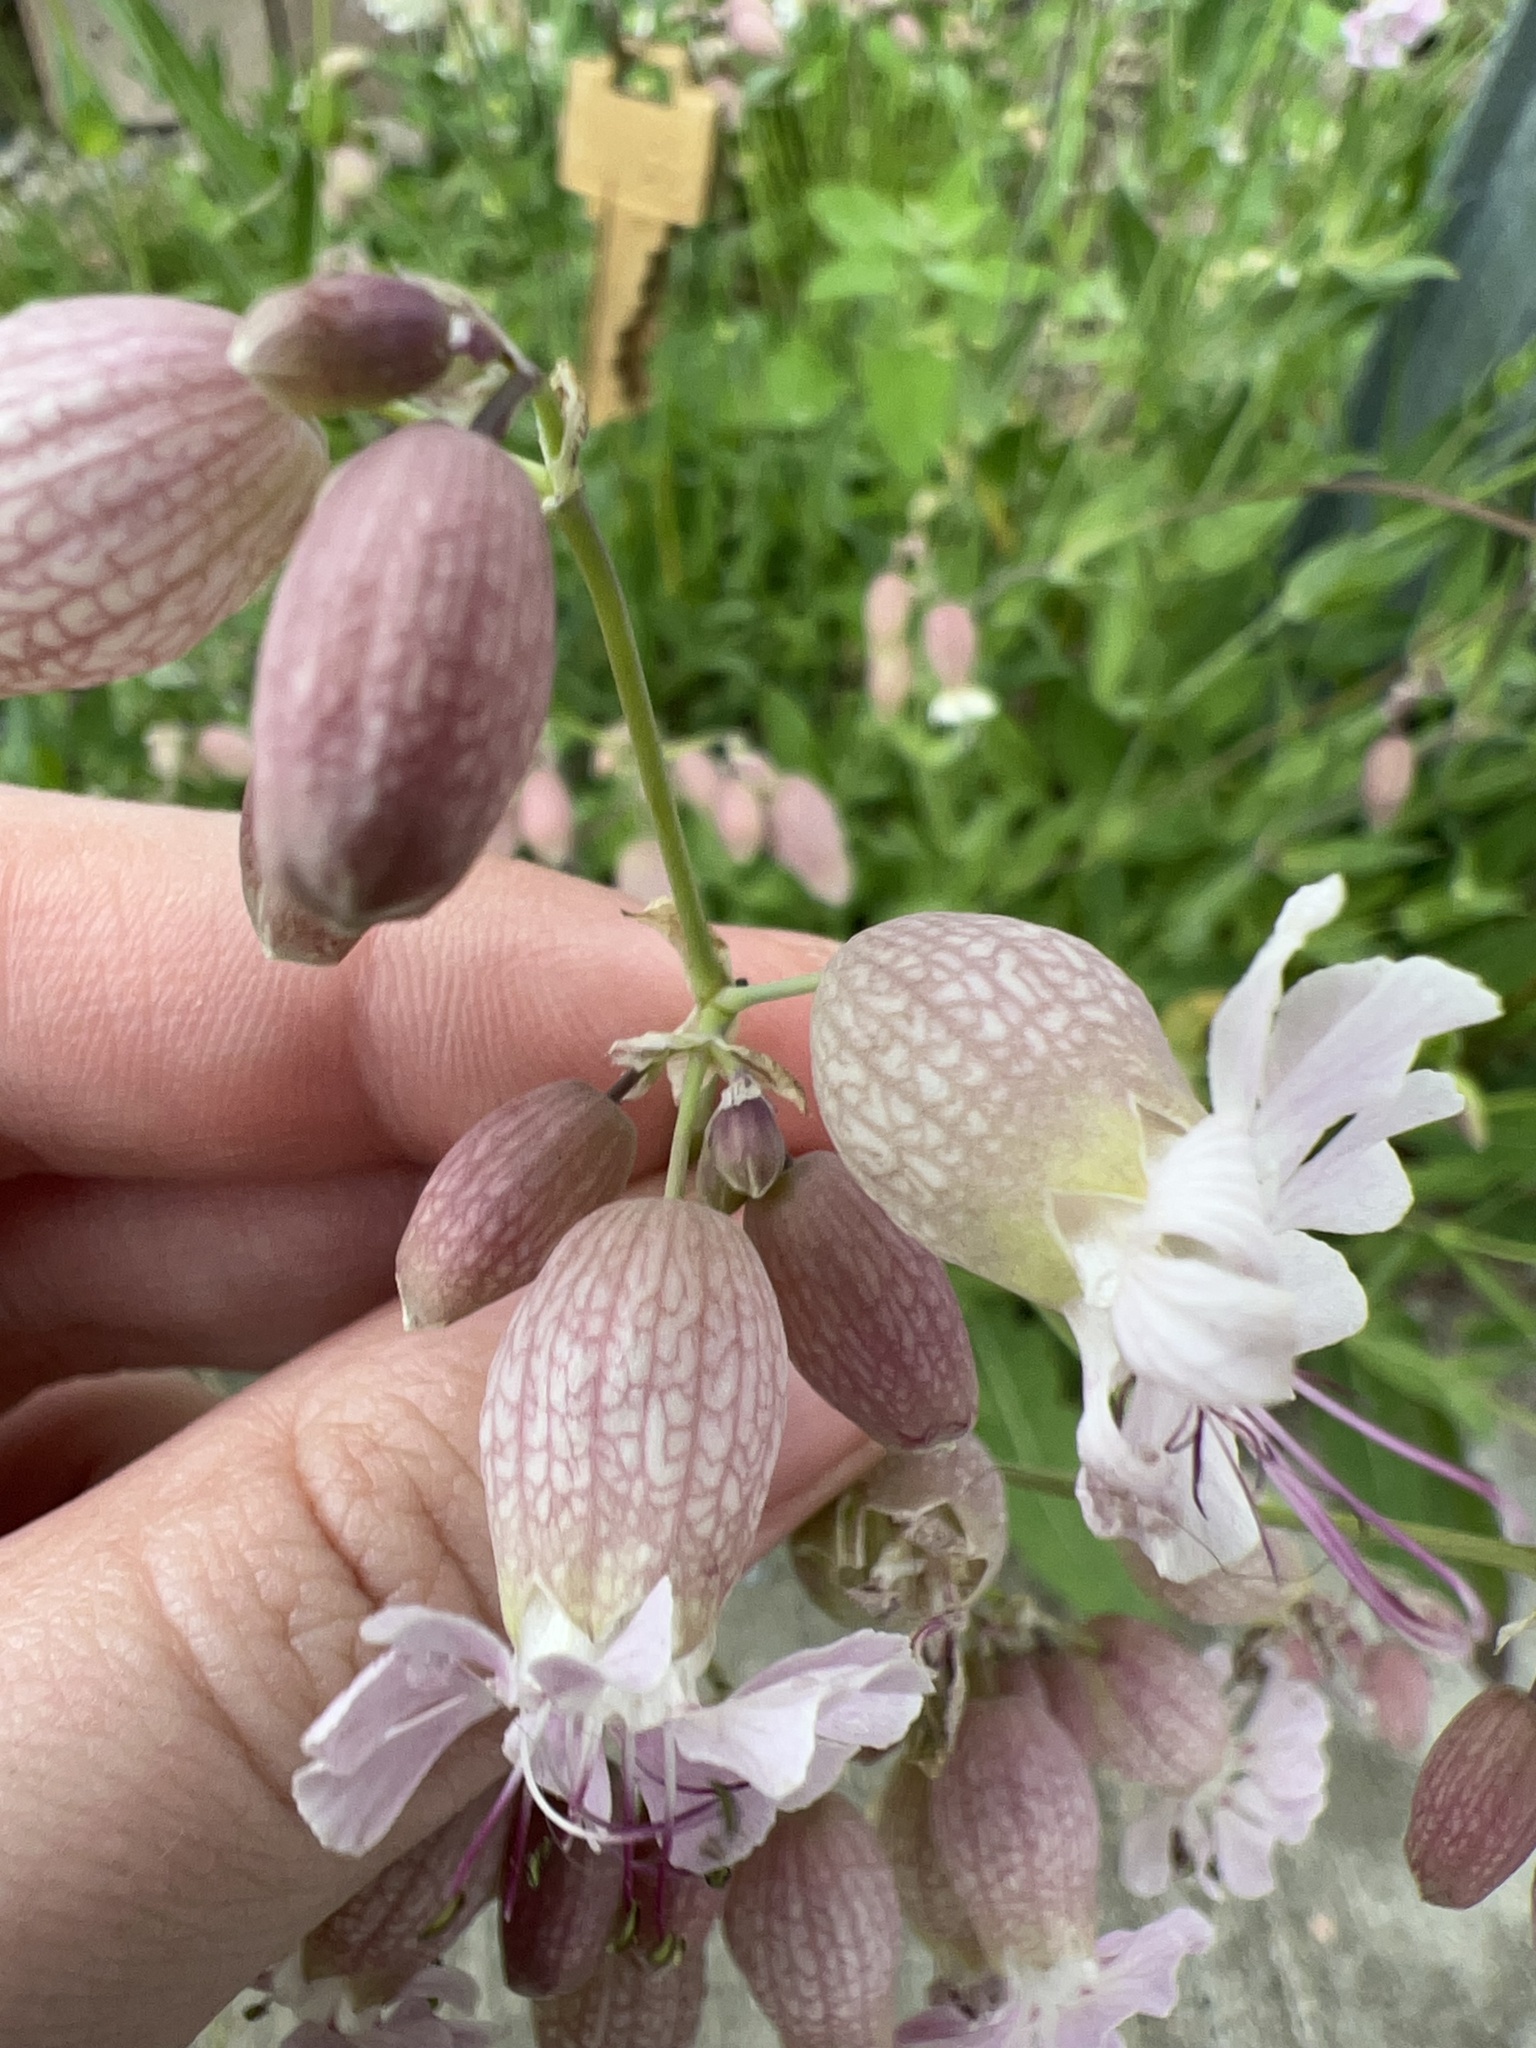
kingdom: Plantae
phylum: Tracheophyta
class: Magnoliopsida
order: Caryophyllales
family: Caryophyllaceae
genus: Silene
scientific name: Silene vulgaris
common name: Bladder campion
